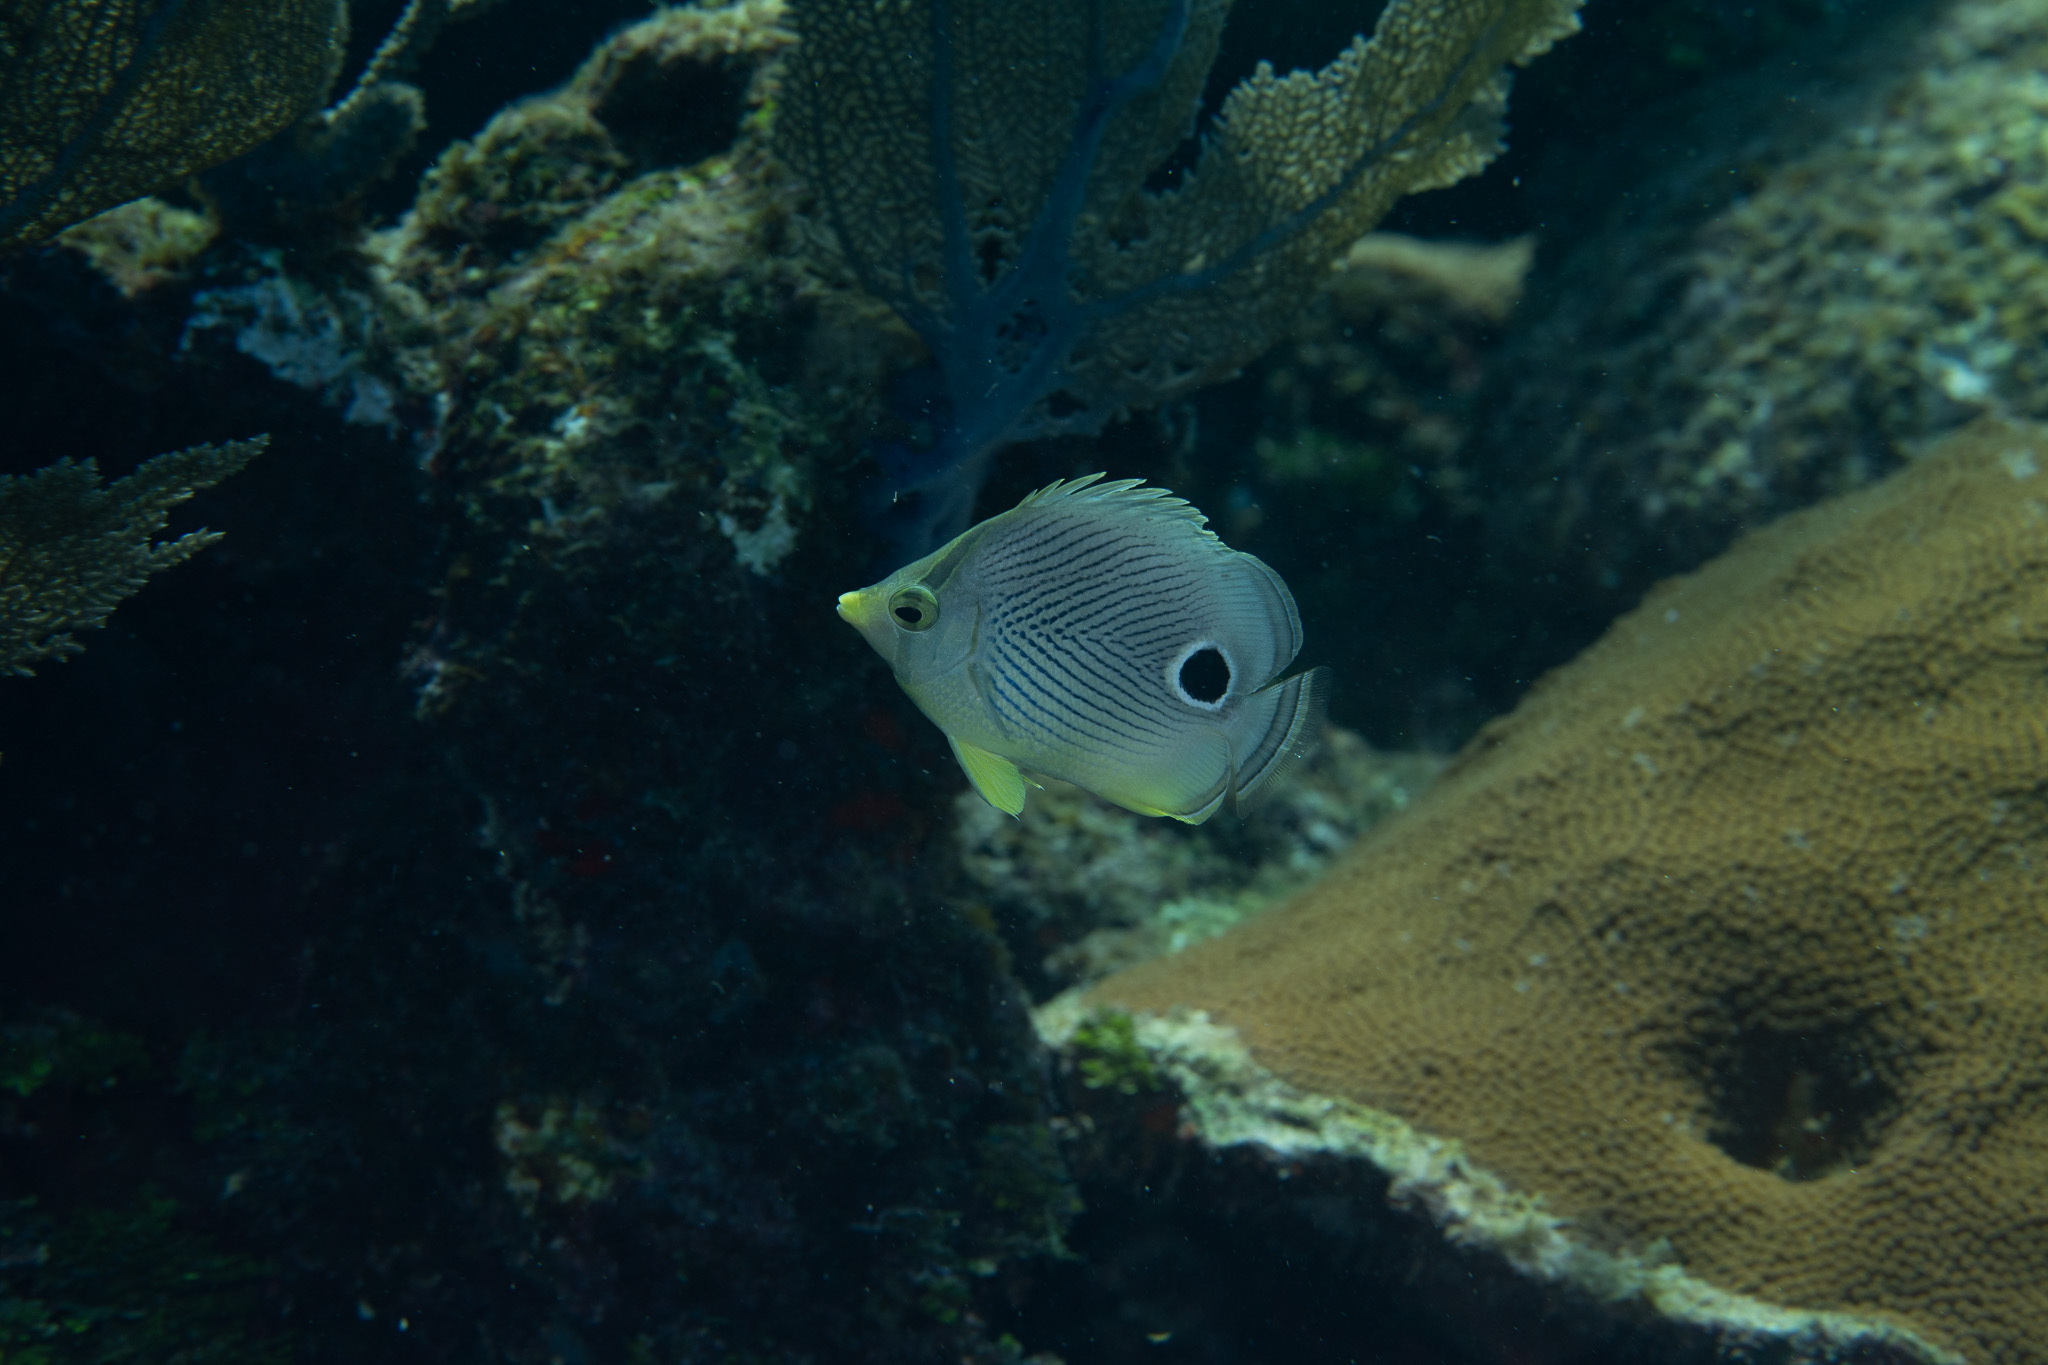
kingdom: Animalia
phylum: Chordata
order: Perciformes
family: Chaetodontidae
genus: Chaetodon
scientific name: Chaetodon capistratus
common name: Kete
